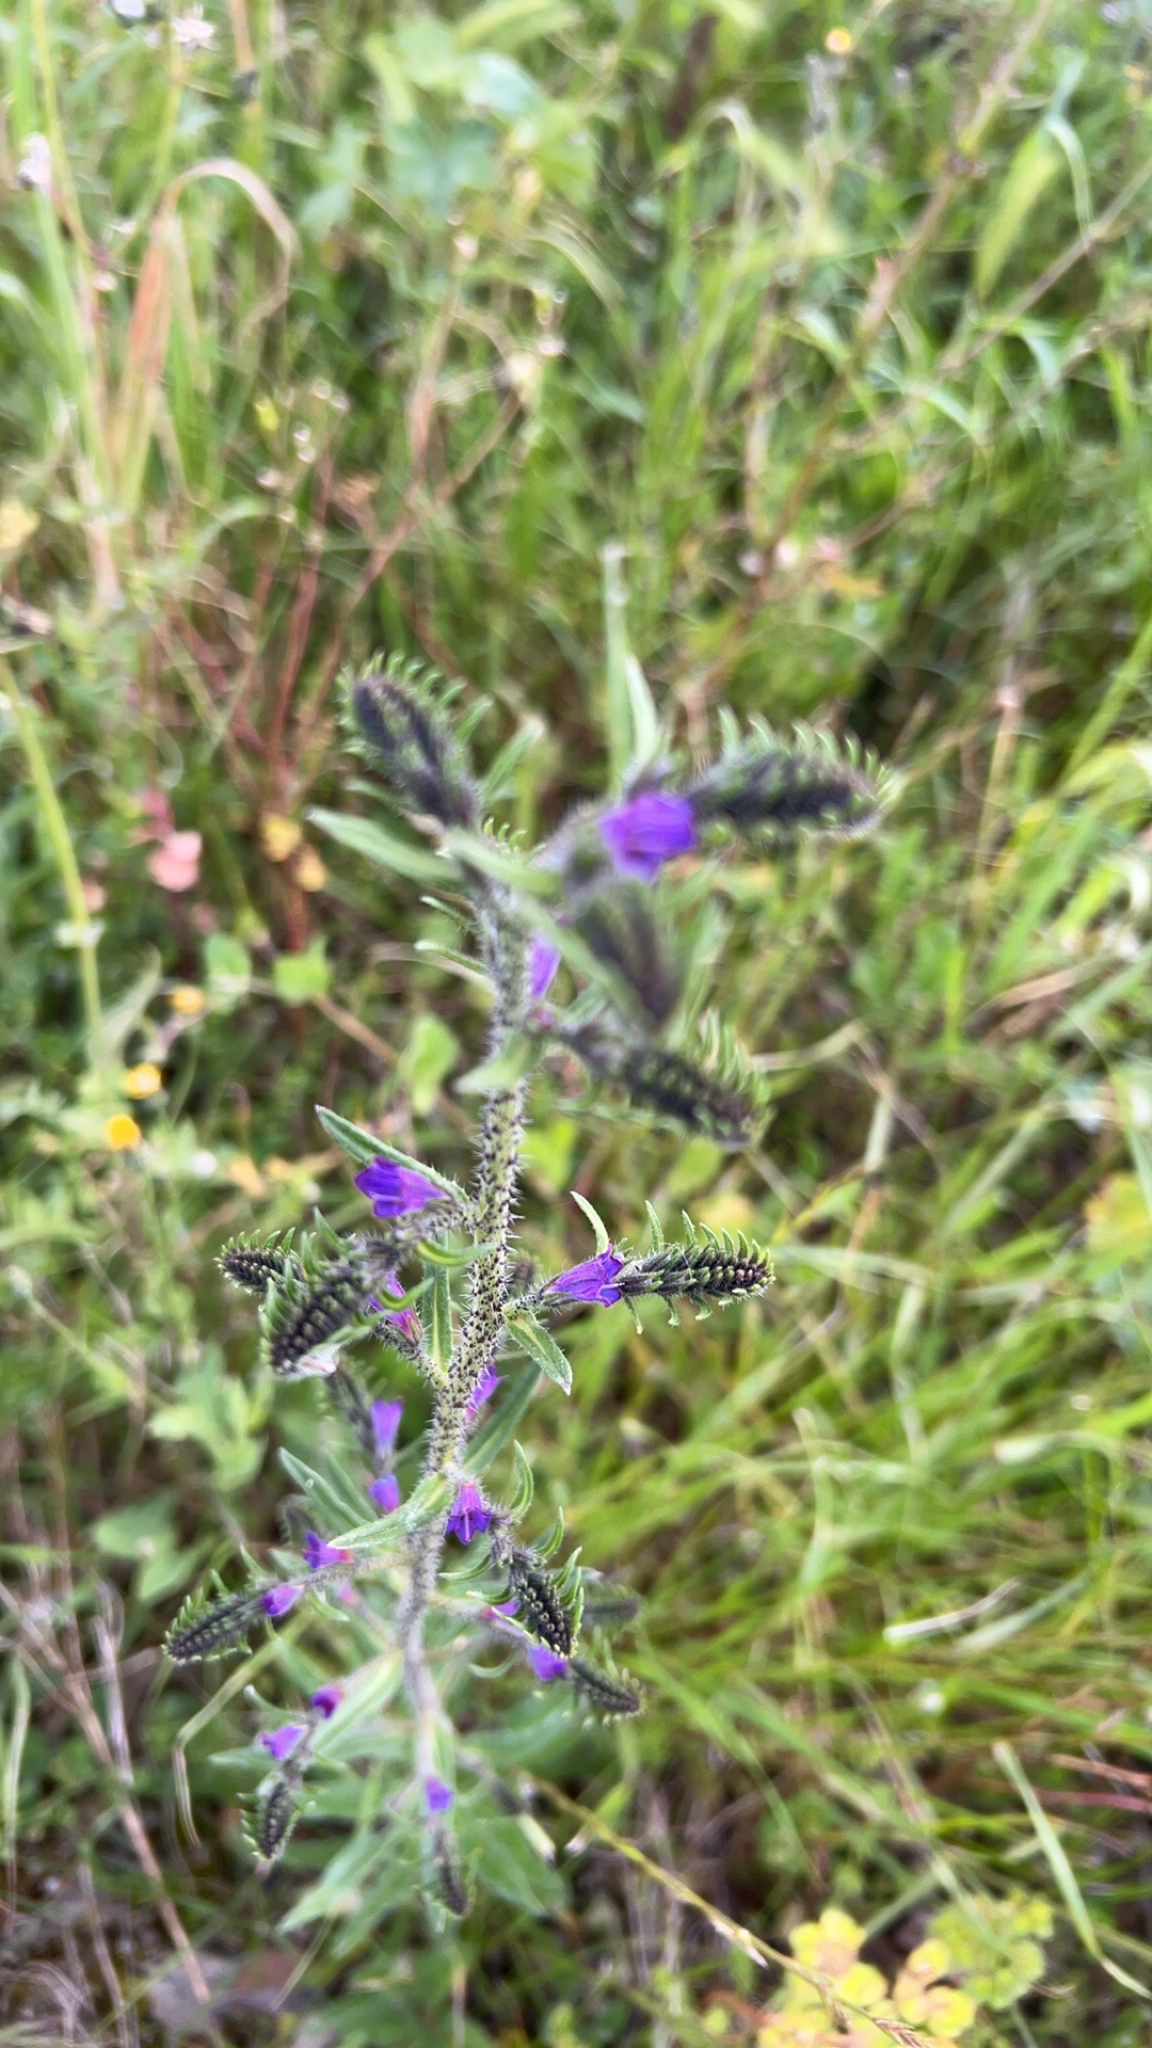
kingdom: Plantae
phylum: Tracheophyta
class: Magnoliopsida
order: Boraginales
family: Boraginaceae
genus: Echium
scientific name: Echium tuberculatum
